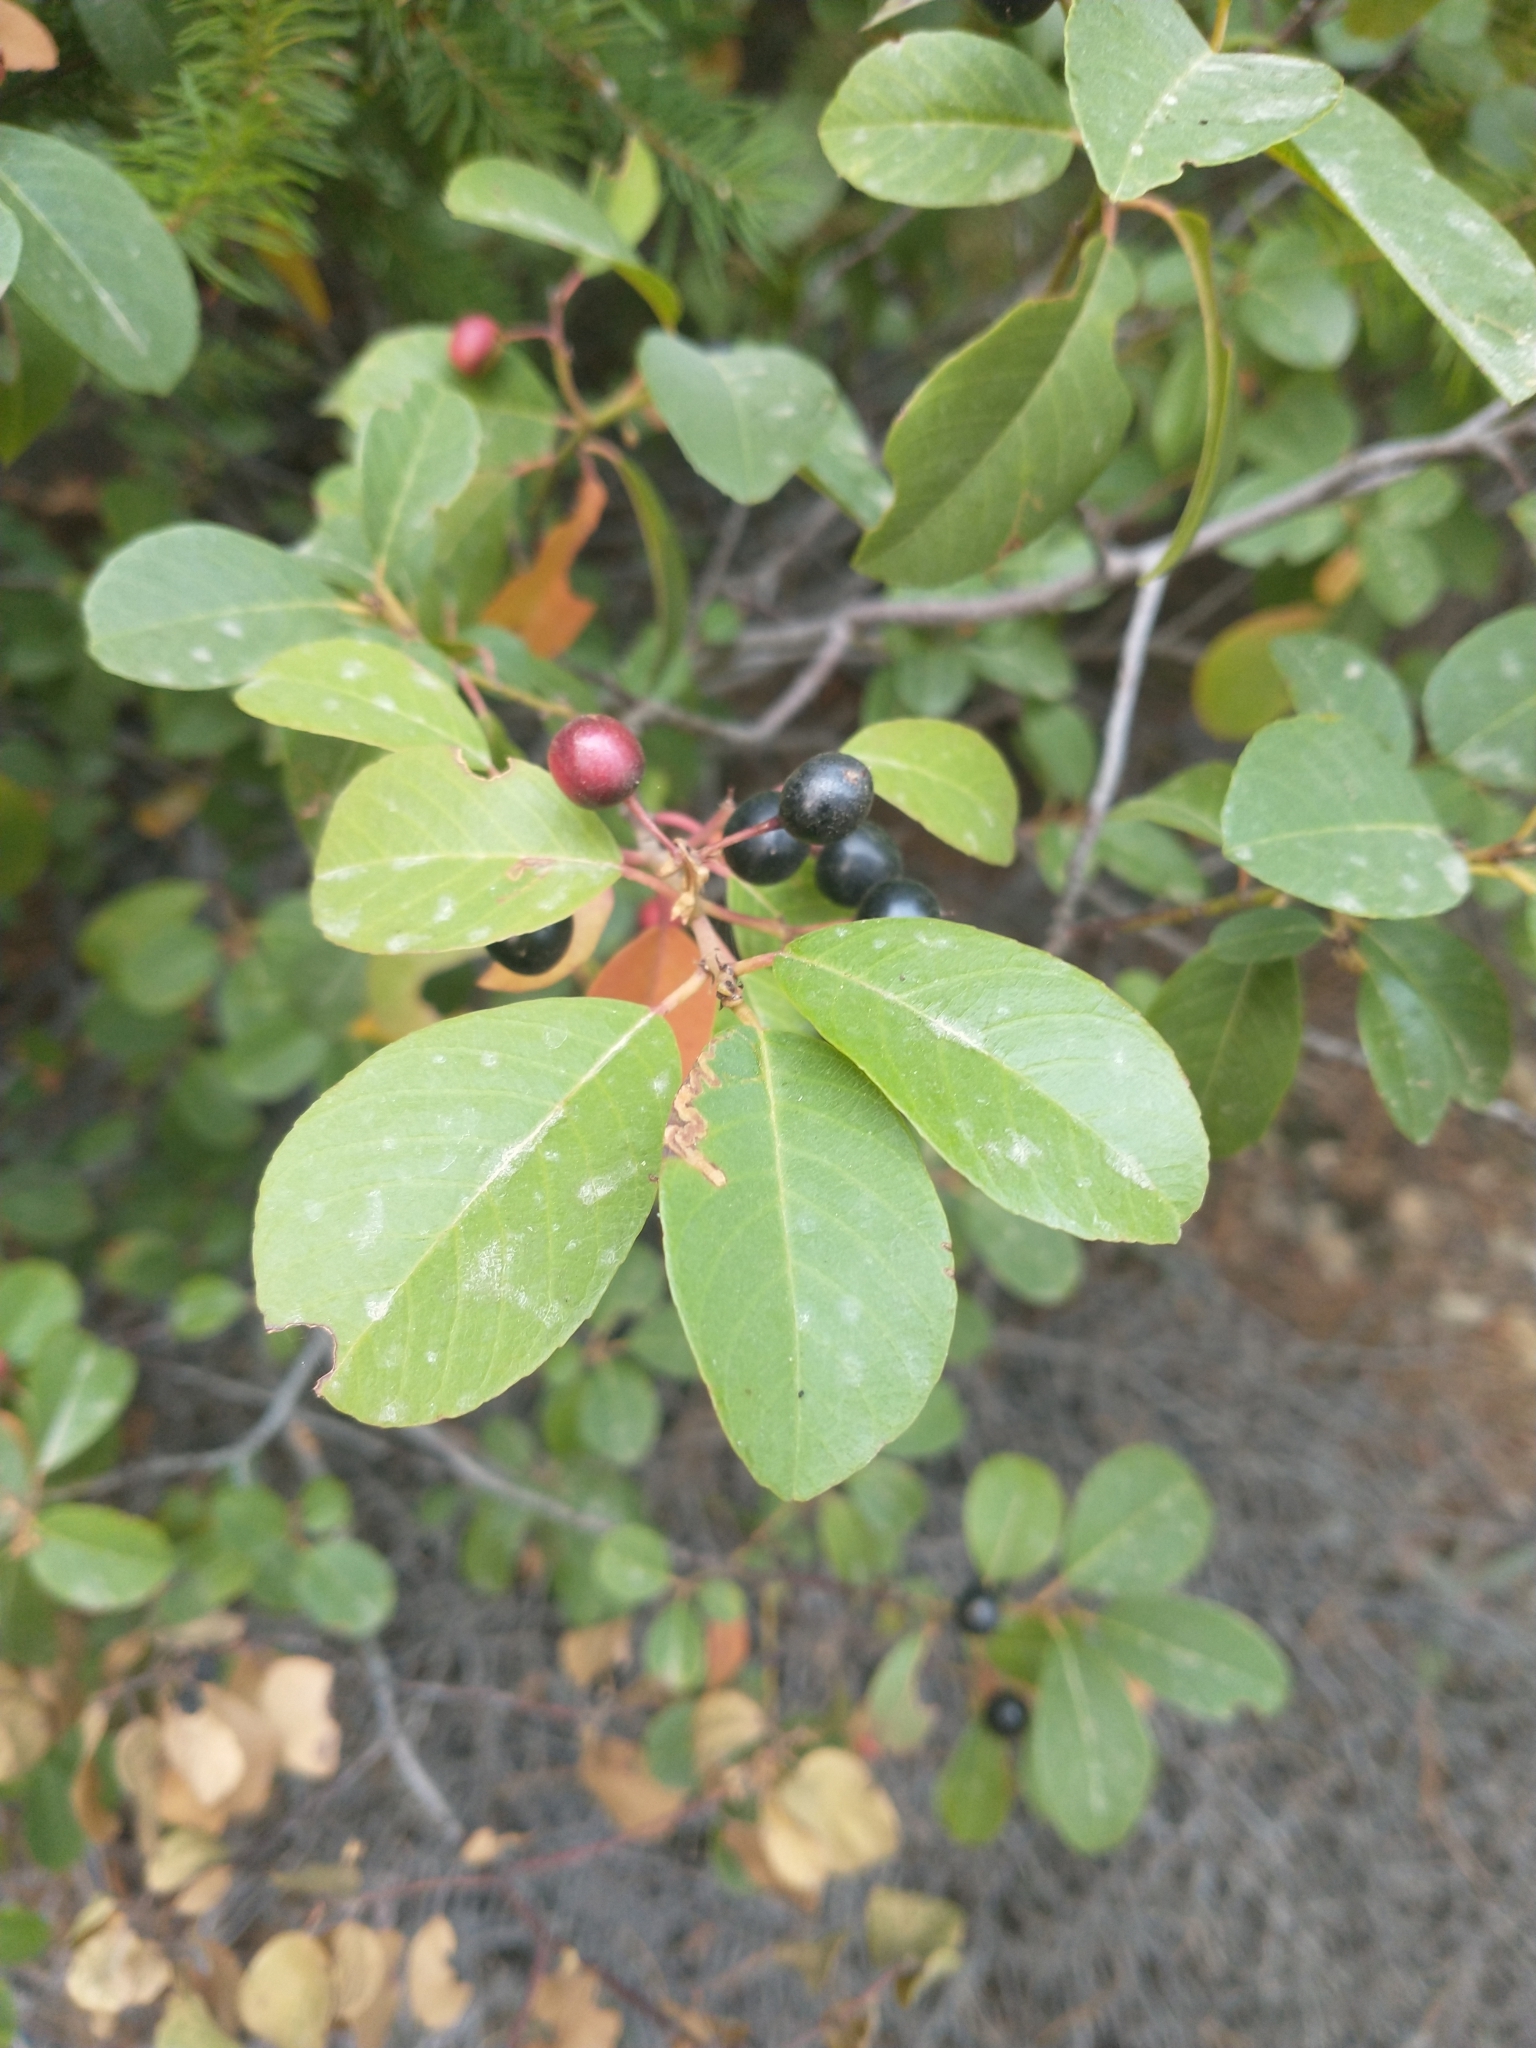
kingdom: Plantae
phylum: Tracheophyta
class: Magnoliopsida
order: Rosales
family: Rhamnaceae
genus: Frangula
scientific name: Frangula californica
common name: California buckthorn
